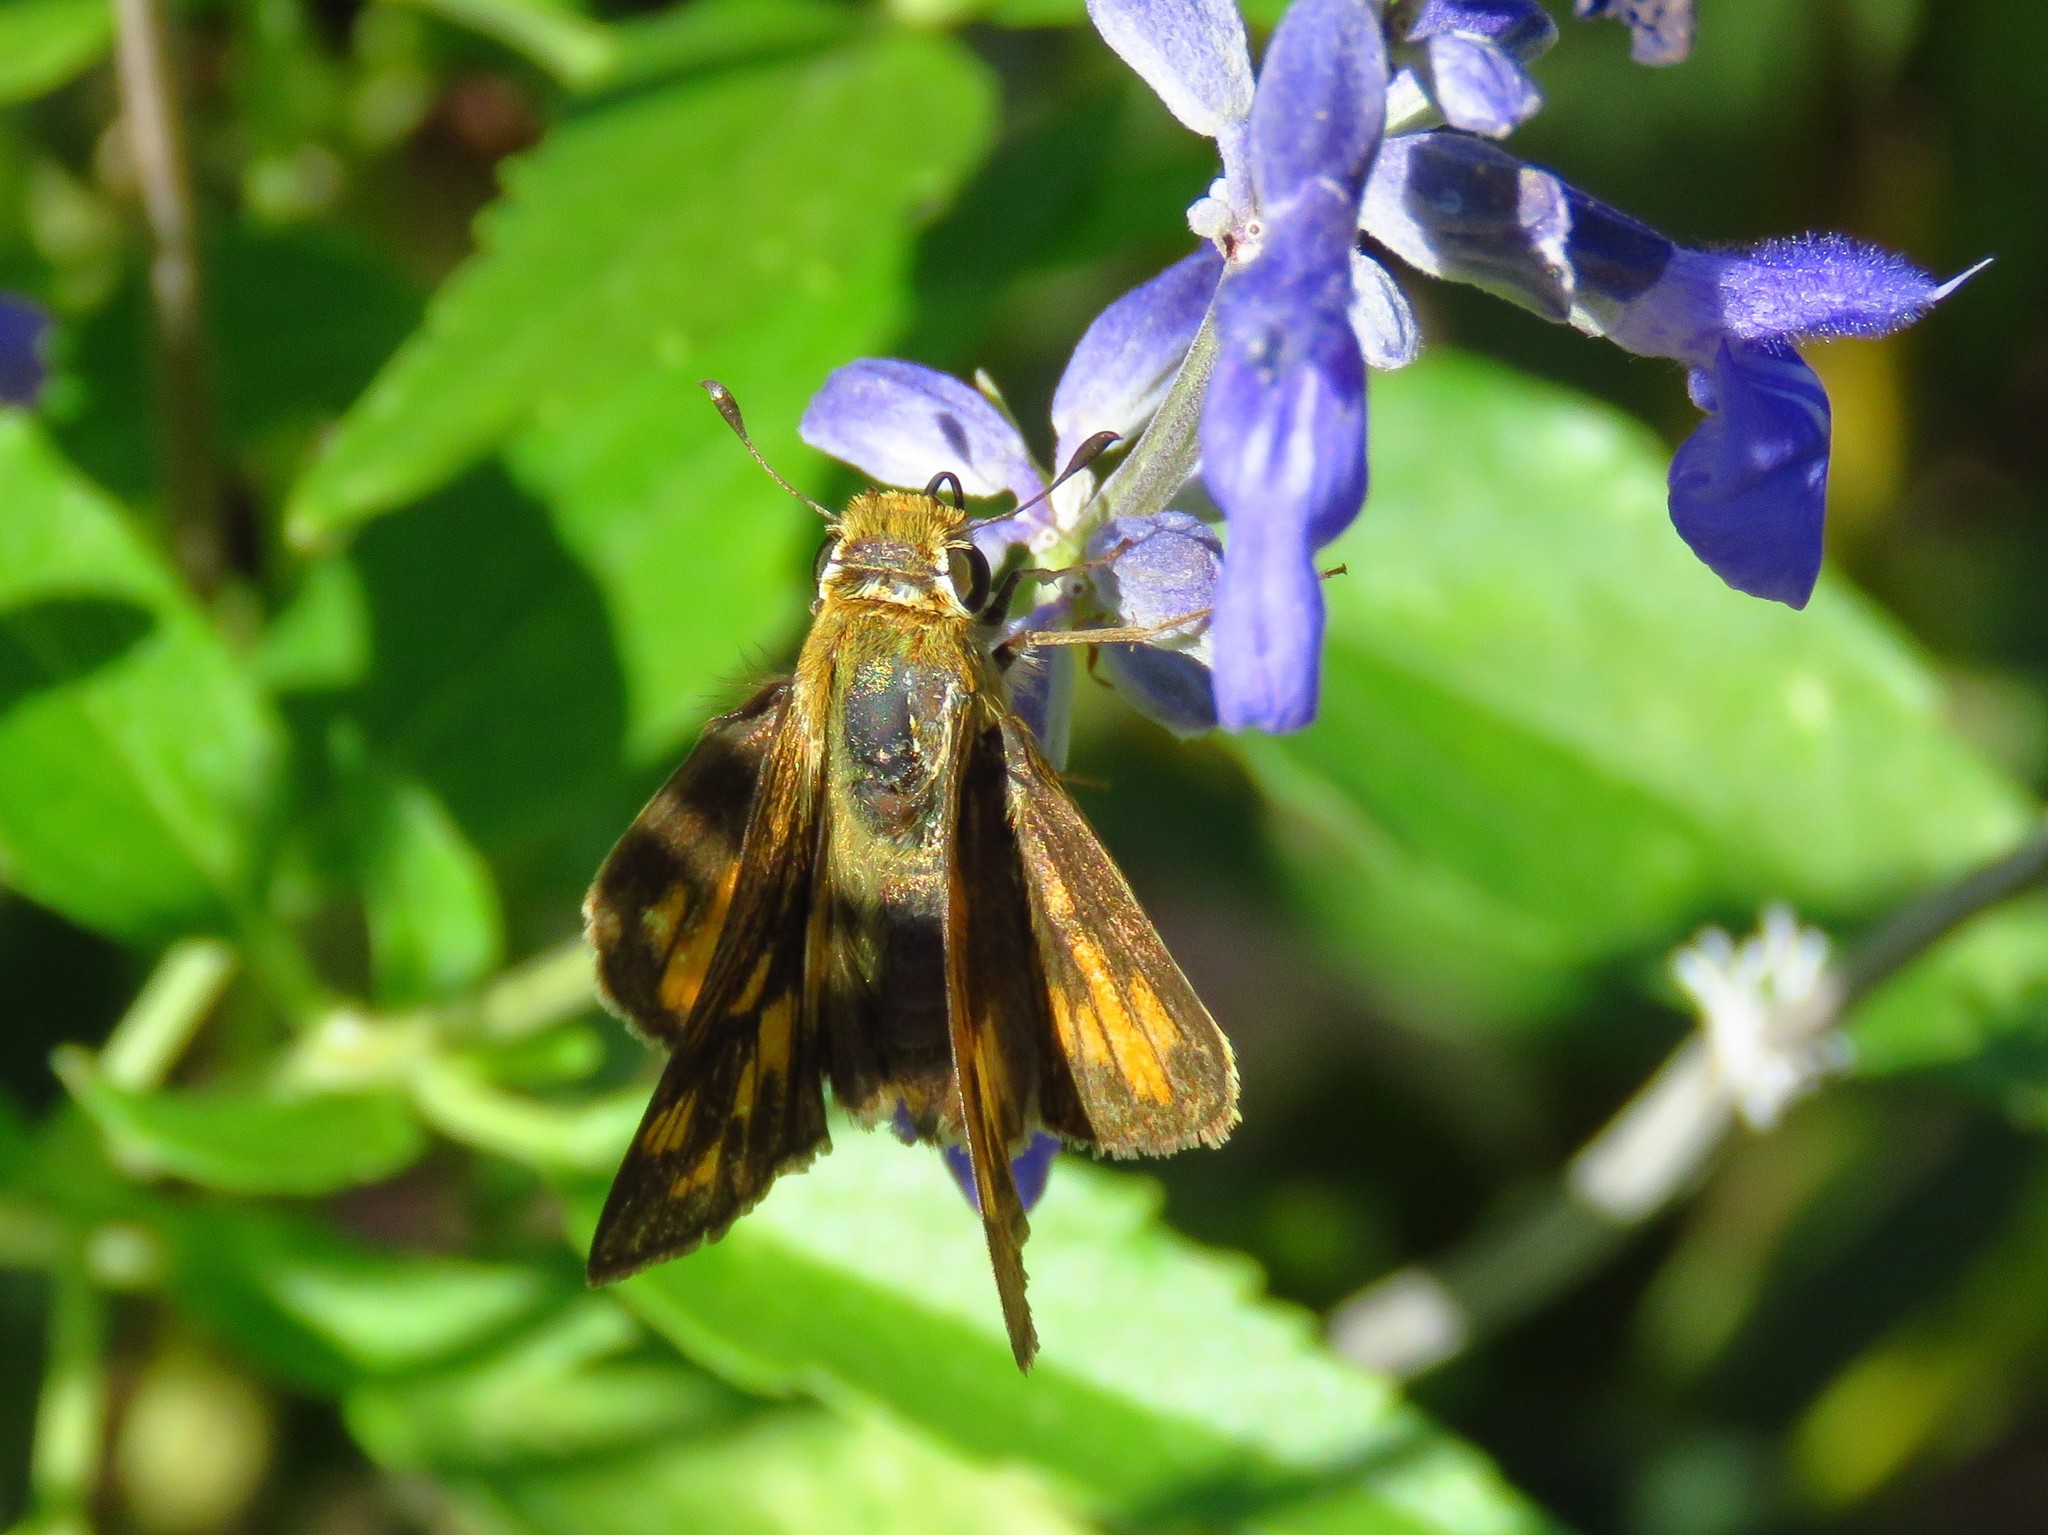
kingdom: Animalia
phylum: Arthropoda
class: Insecta
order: Lepidoptera
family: Hesperiidae
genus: Hylephila
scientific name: Hylephila phyleus
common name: Fiery skipper
